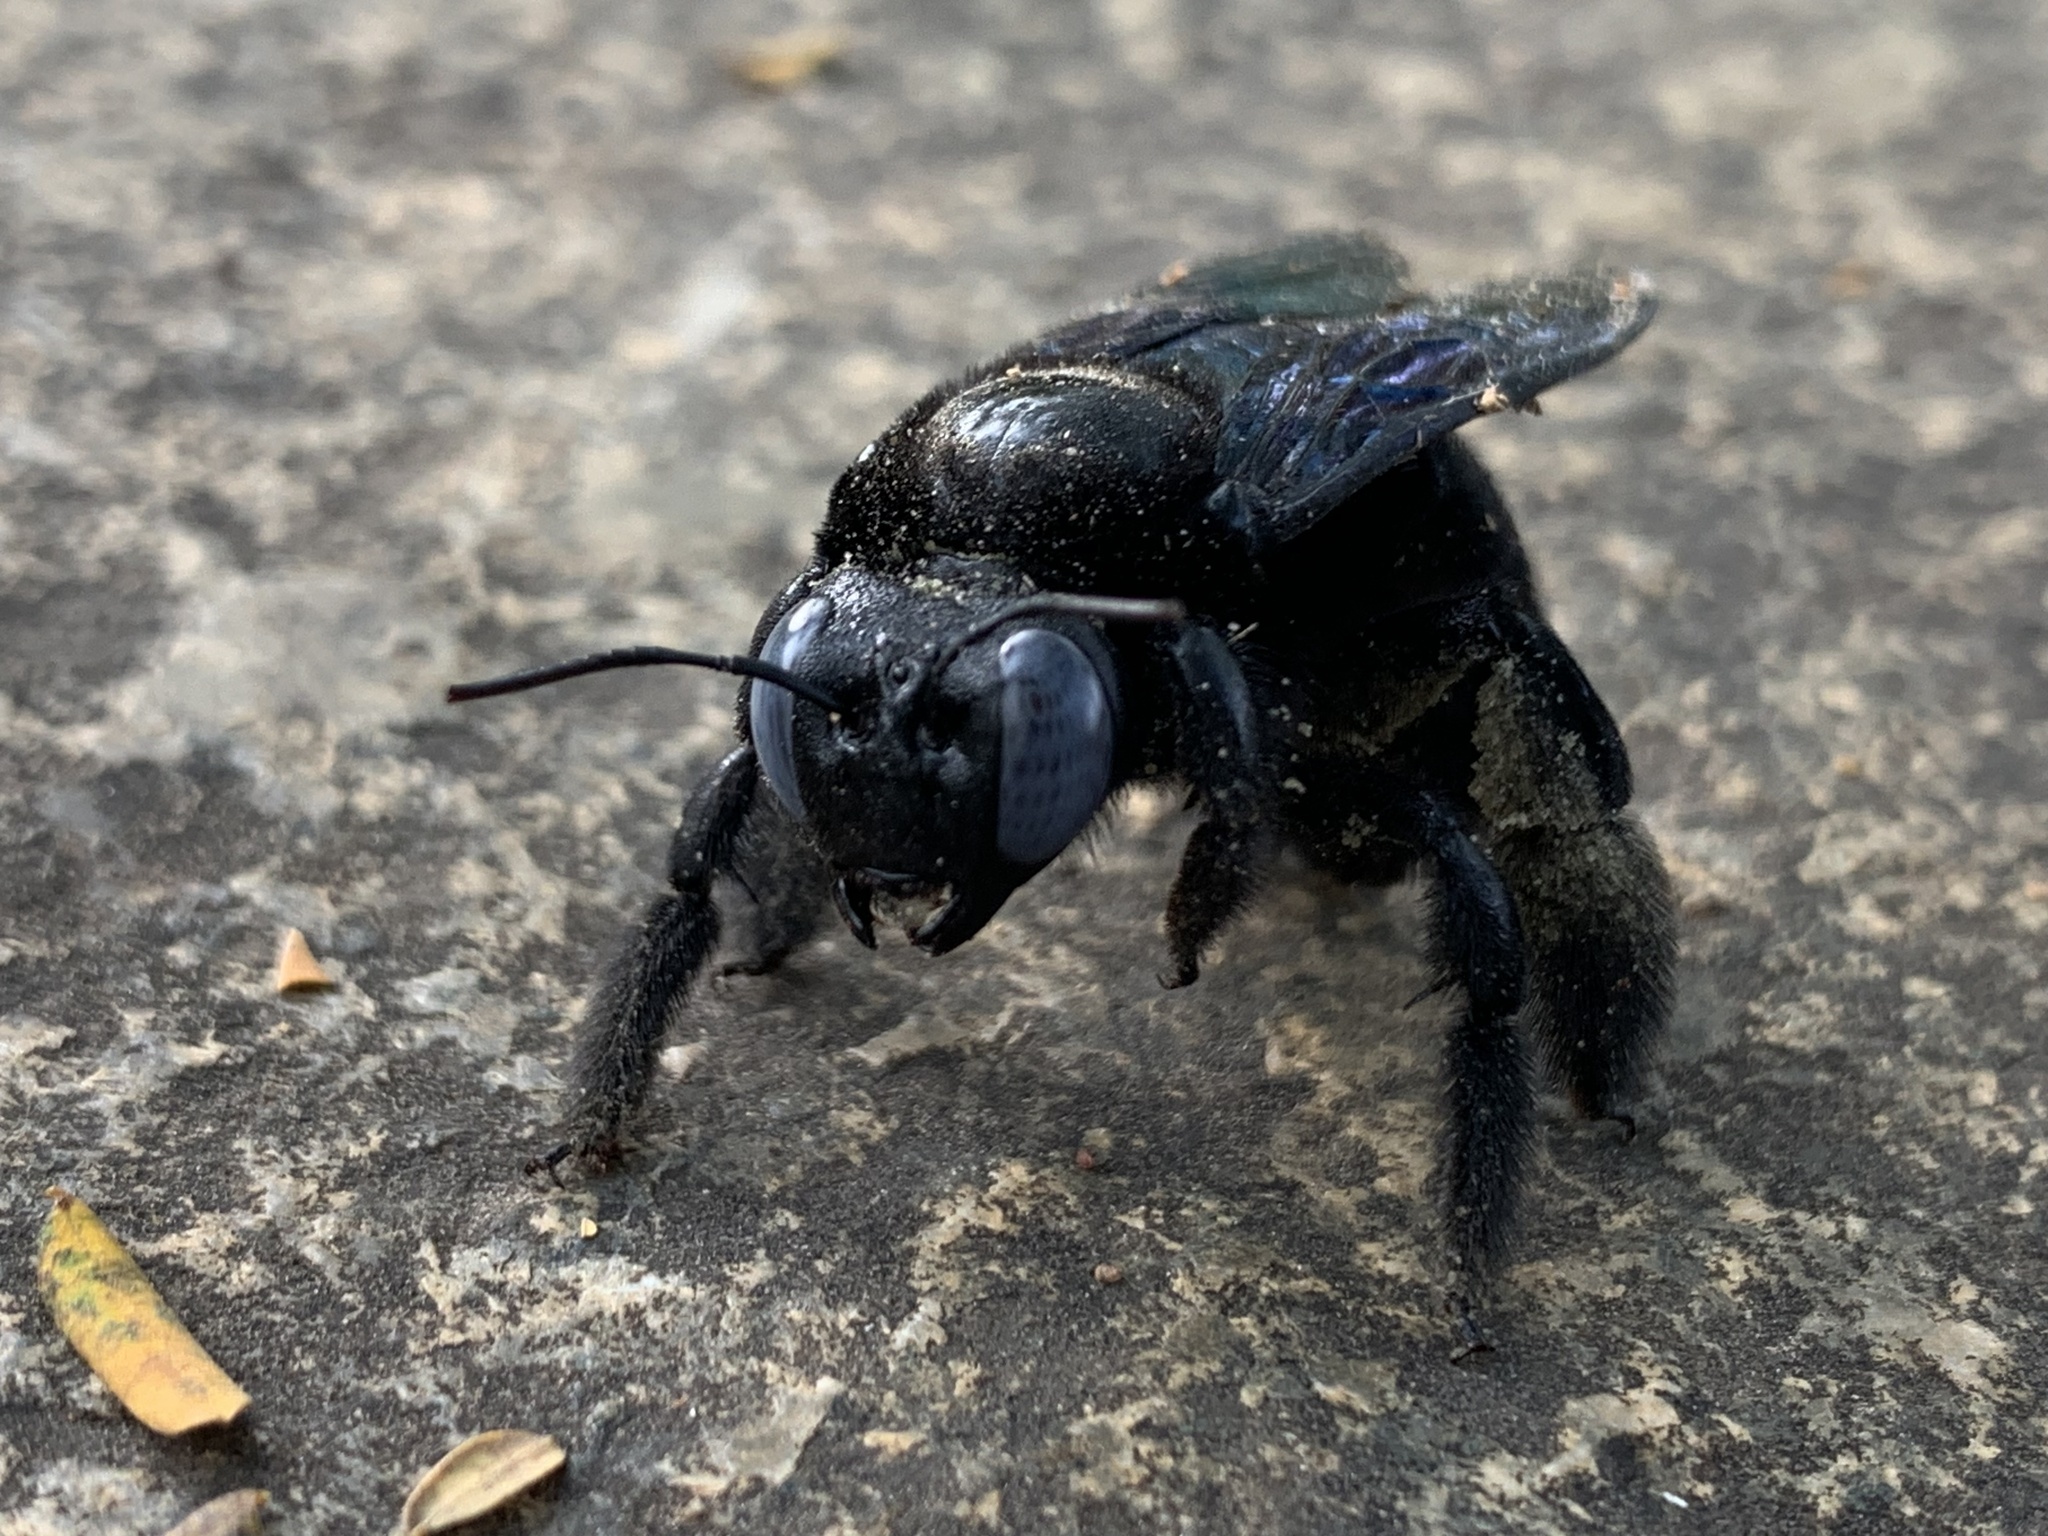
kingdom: Animalia
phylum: Arthropoda
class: Insecta
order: Hymenoptera
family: Apidae
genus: Xylocopa
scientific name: Xylocopa auripennis
